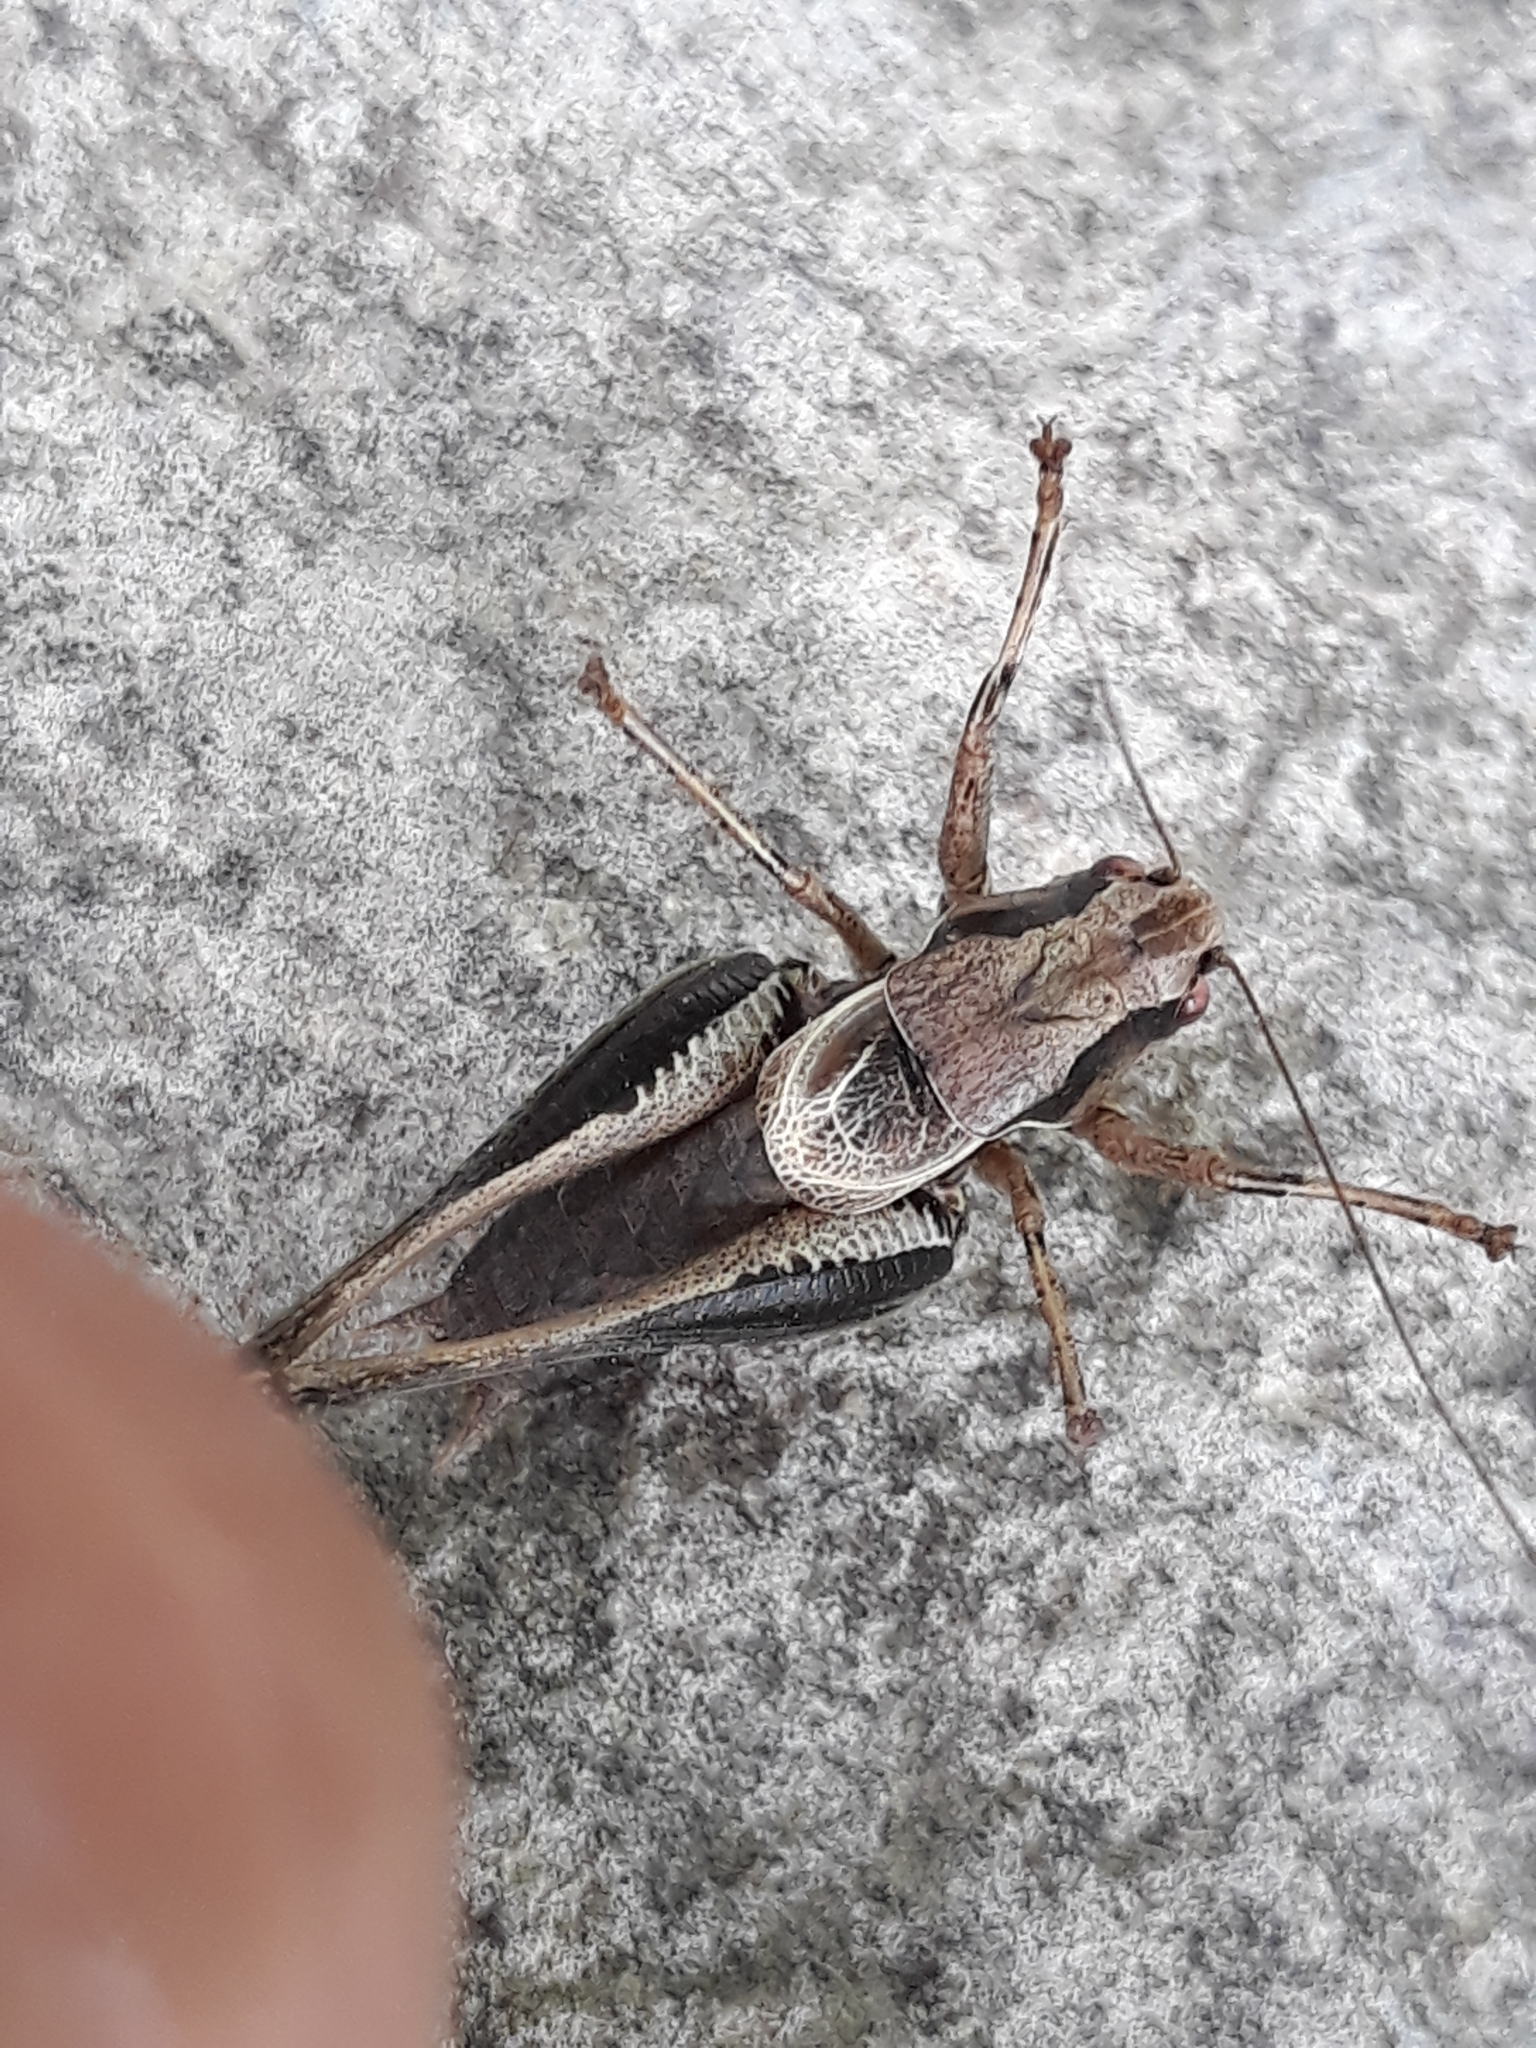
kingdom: Animalia
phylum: Arthropoda
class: Insecta
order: Orthoptera
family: Tettigoniidae
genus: Pholidoptera
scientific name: Pholidoptera griseoaptera
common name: Dark bush-cricket
